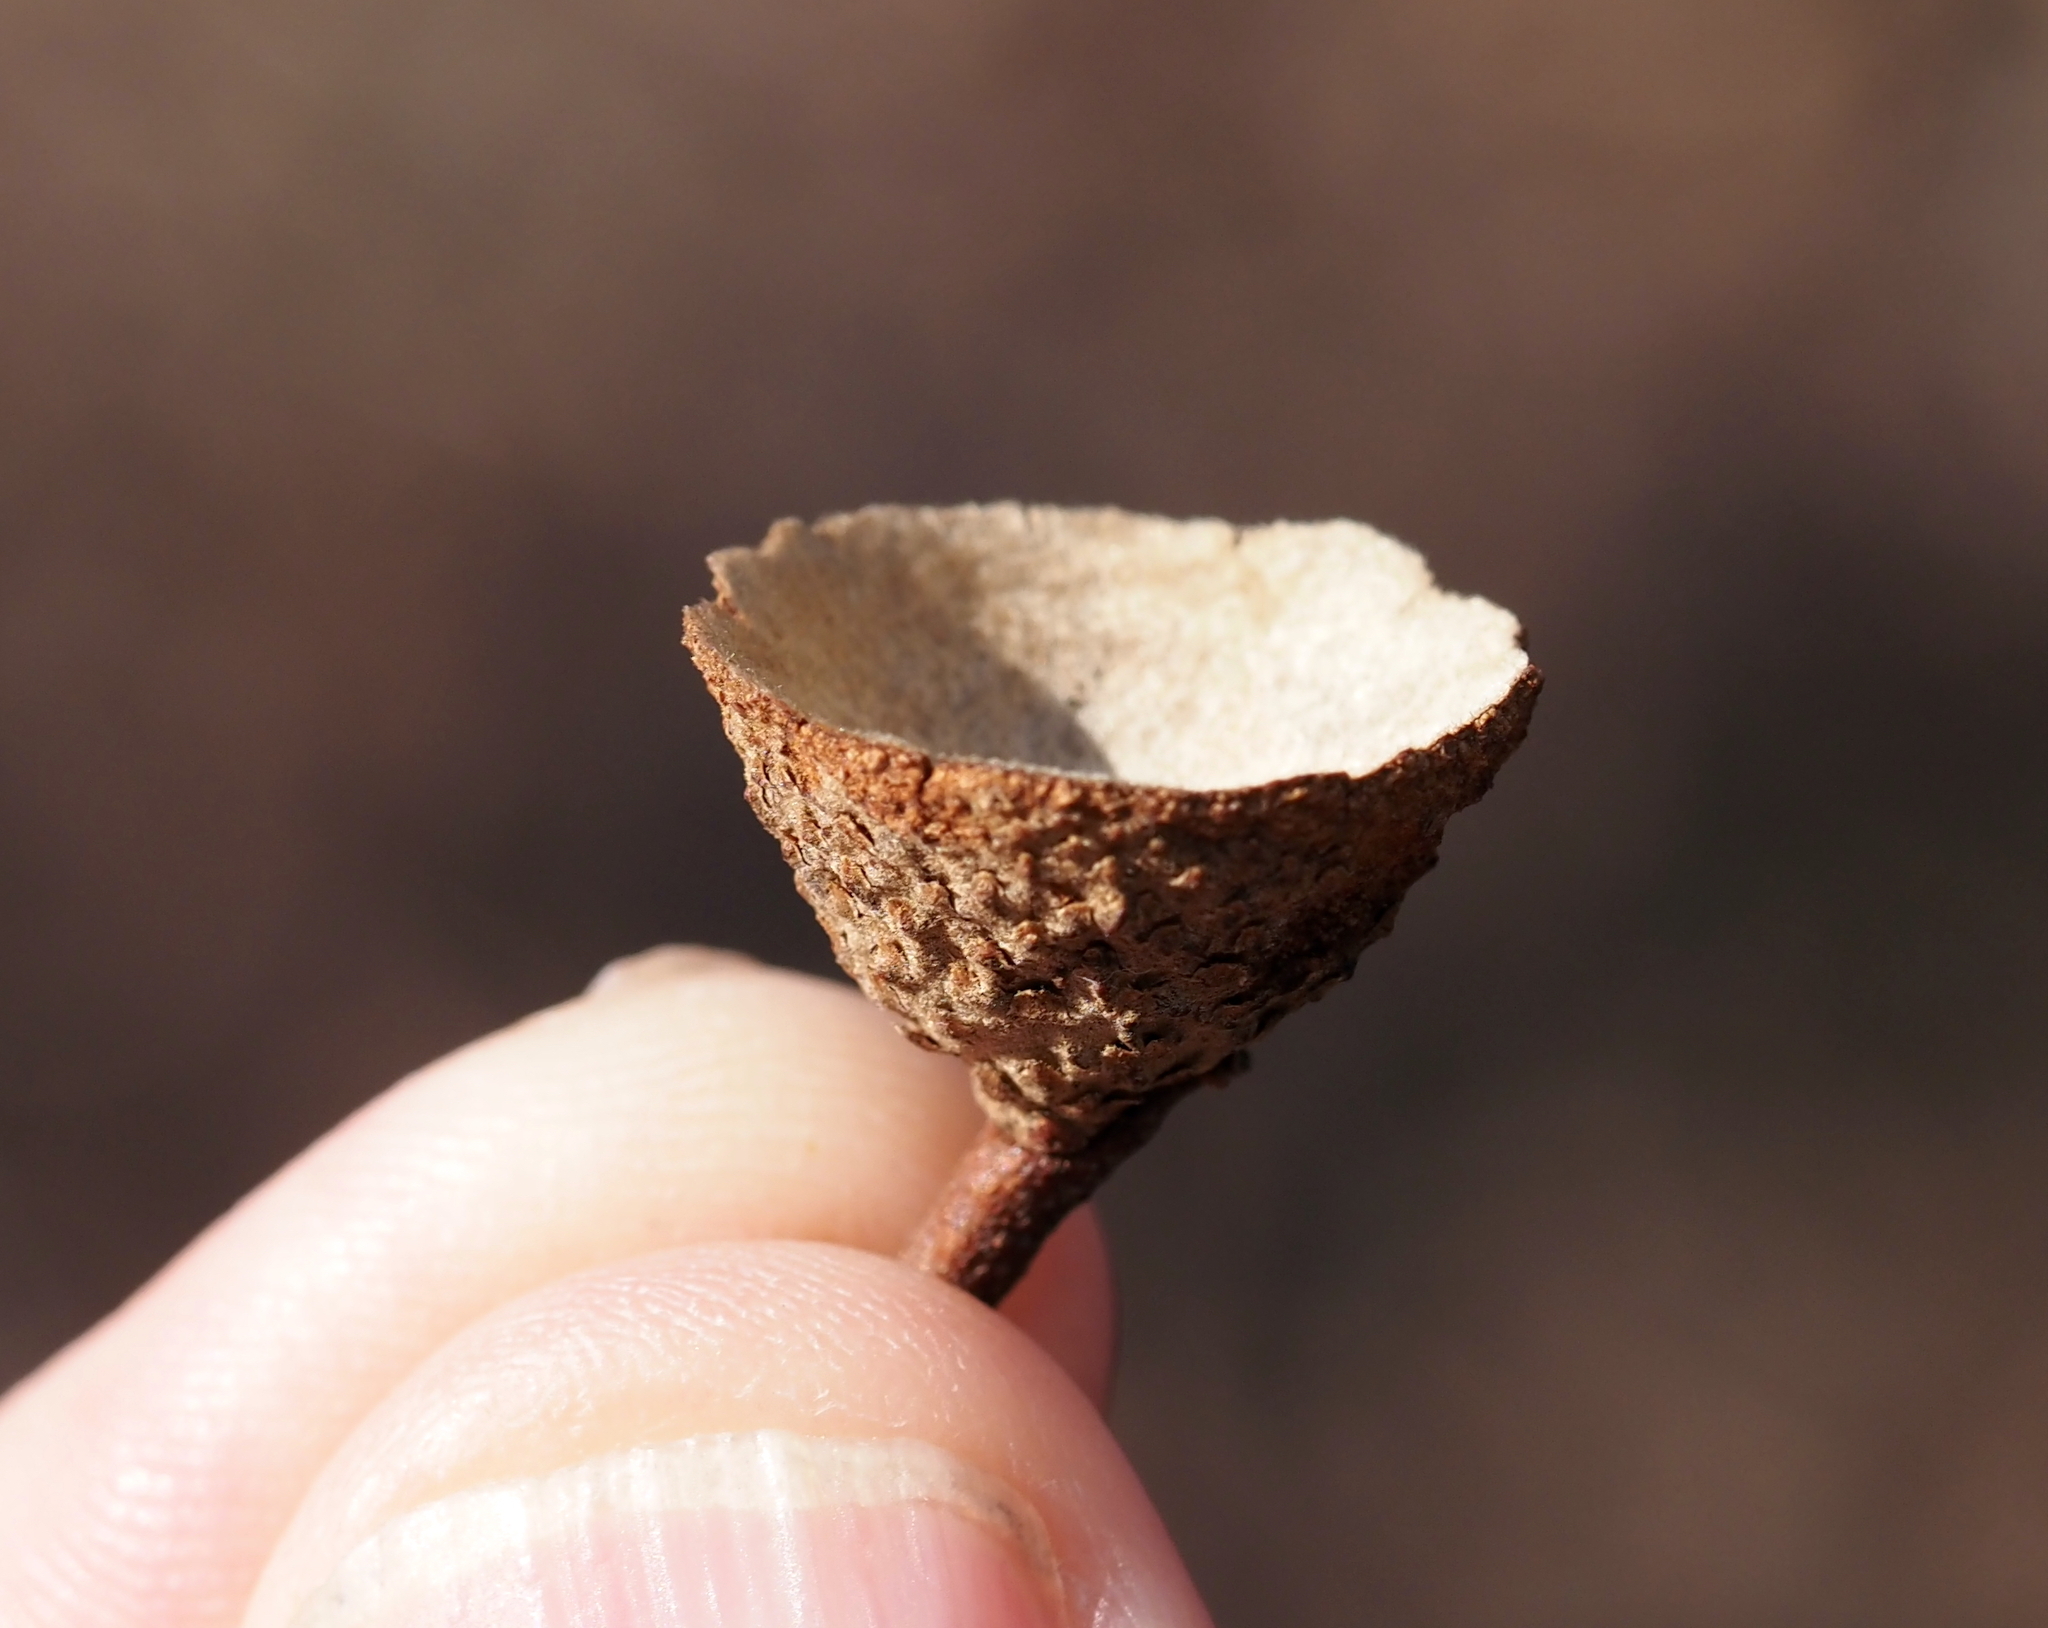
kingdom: Plantae
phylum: Tracheophyta
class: Magnoliopsida
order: Fagales
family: Fagaceae
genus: Quercus
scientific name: Quercus montana
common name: Chestnut oak
